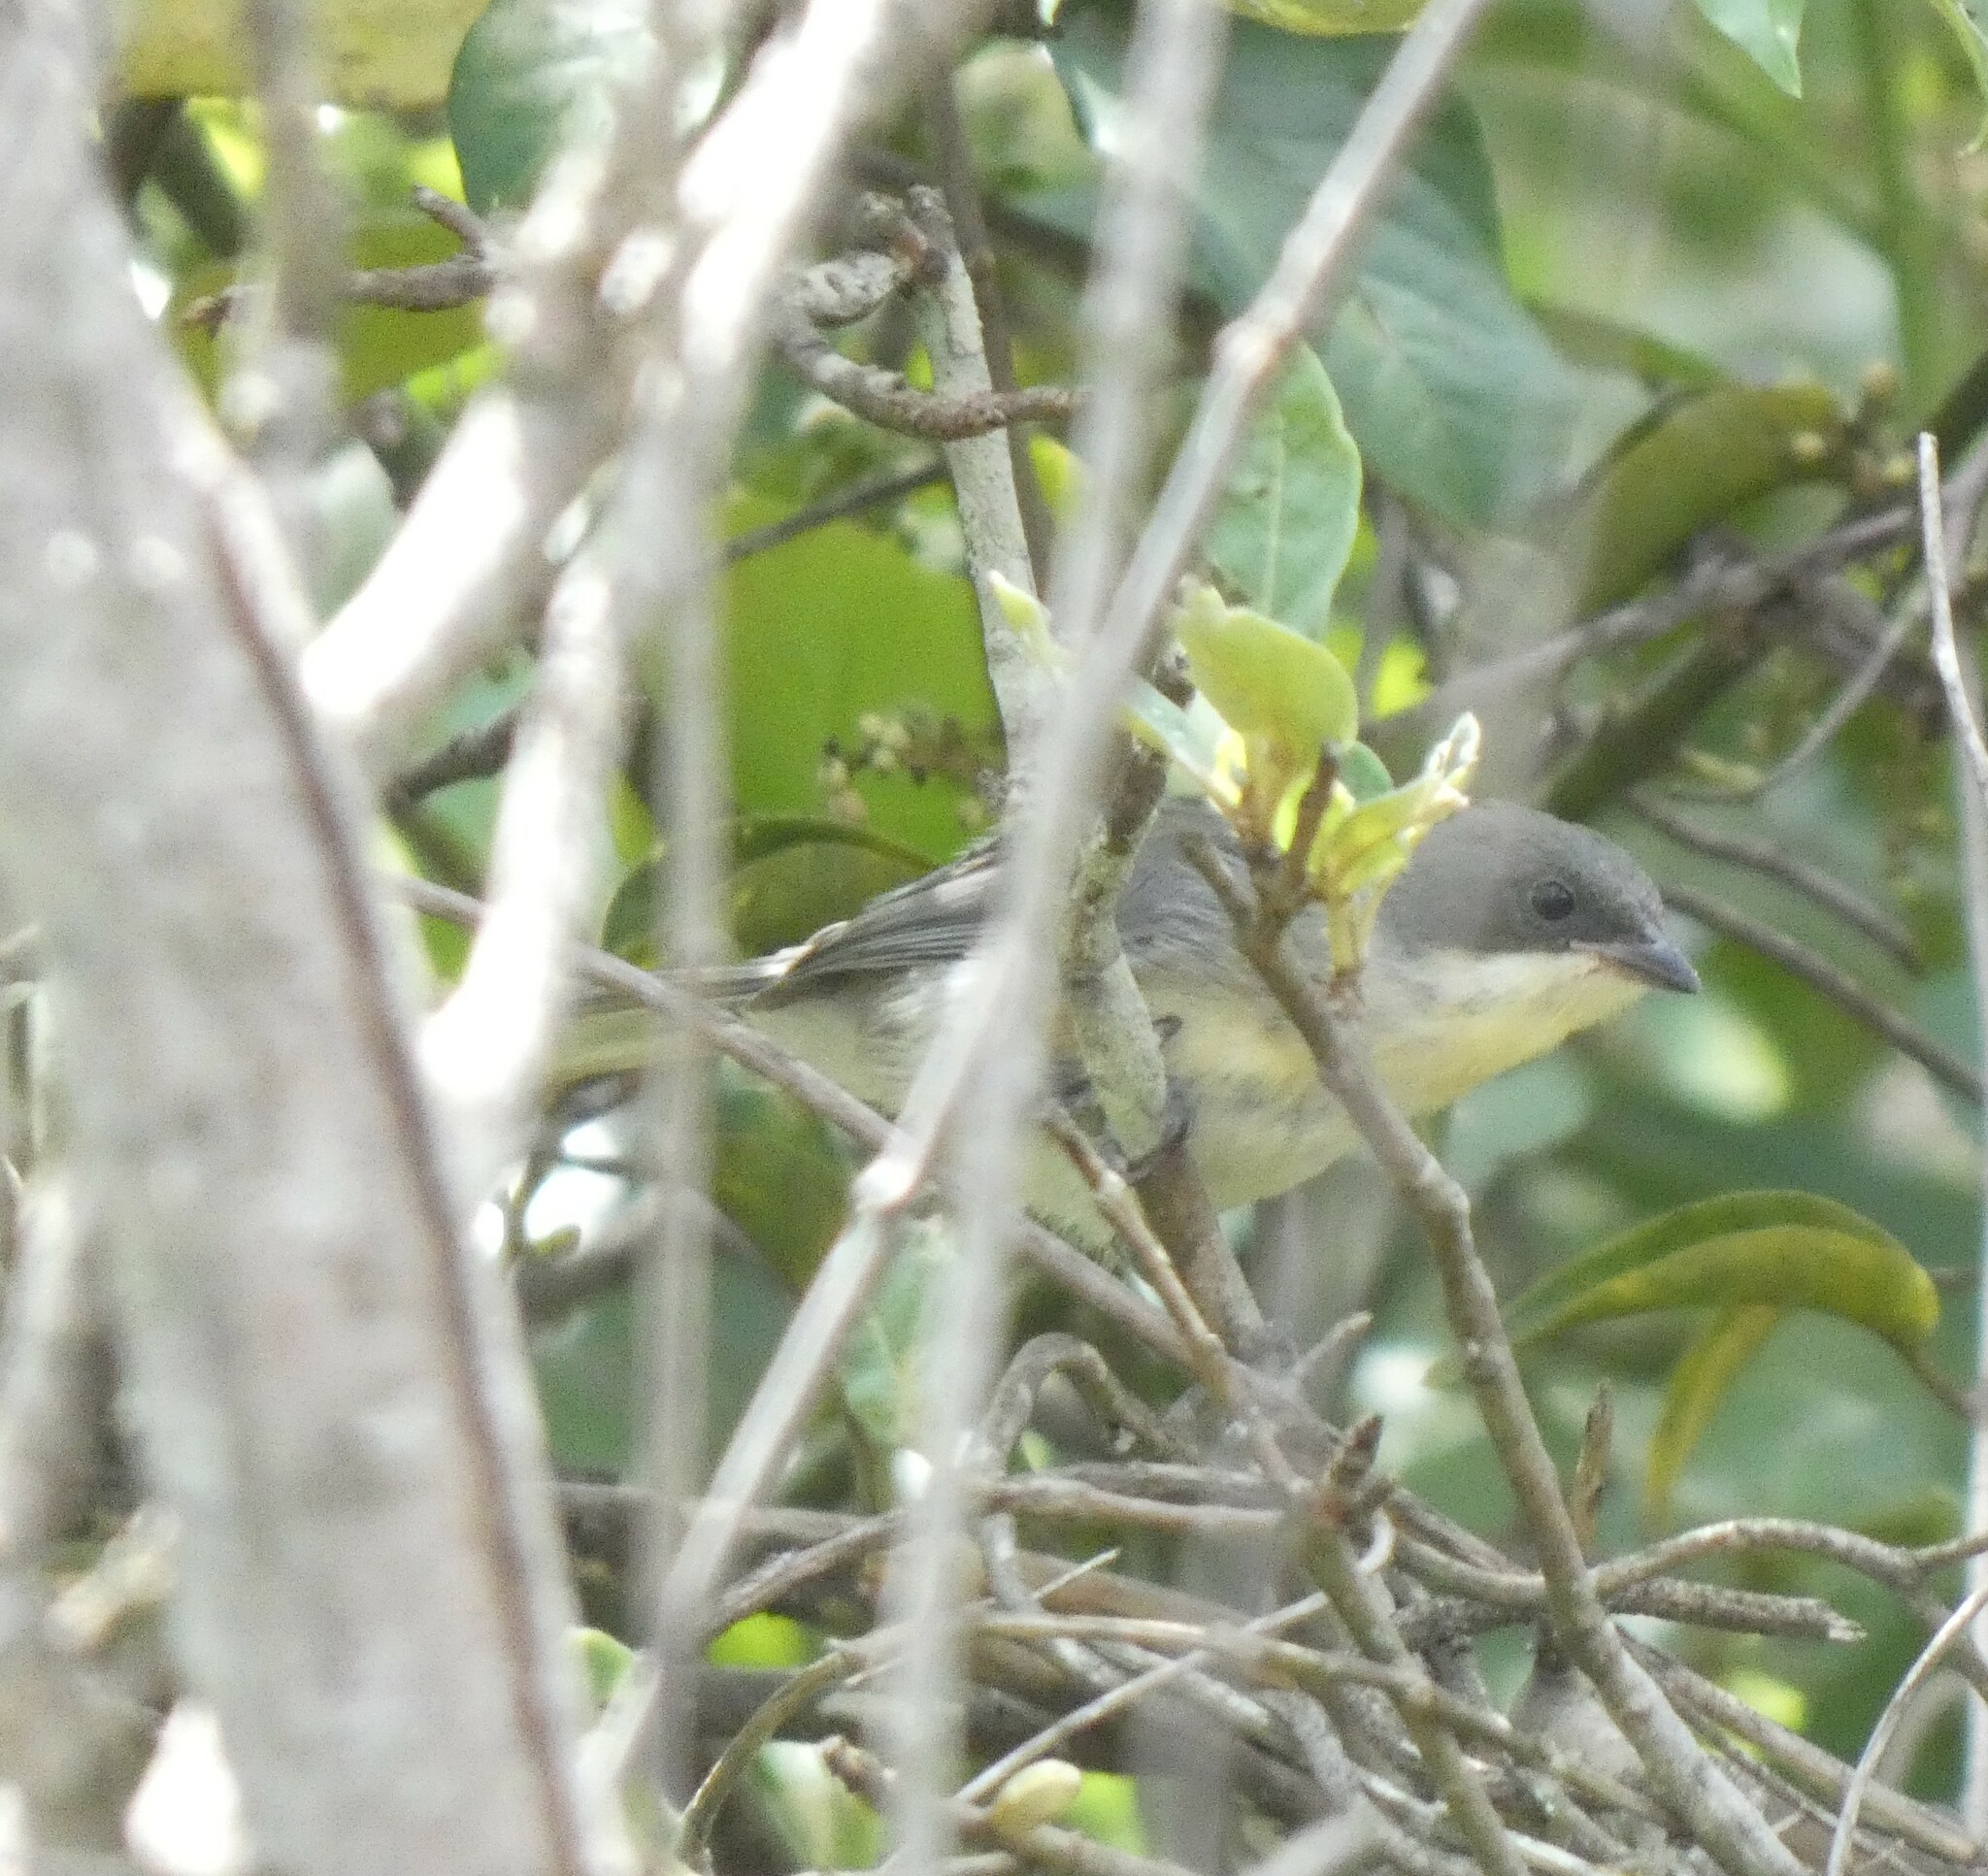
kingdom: Animalia
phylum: Chordata
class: Aves
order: Passeriformes
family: Thraupidae
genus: Microspingus
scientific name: Microspingus cinereus
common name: Cinereous warbling-finch
